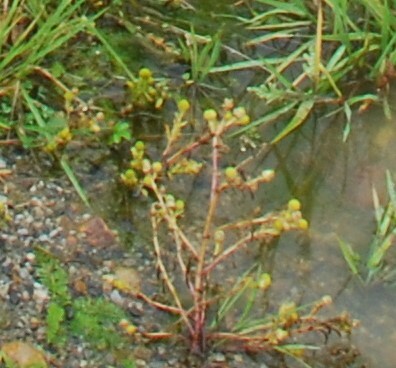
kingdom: Plantae
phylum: Tracheophyta
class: Magnoliopsida
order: Asterales
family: Asteraceae
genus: Matricaria
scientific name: Matricaria discoidea
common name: Disc mayweed
